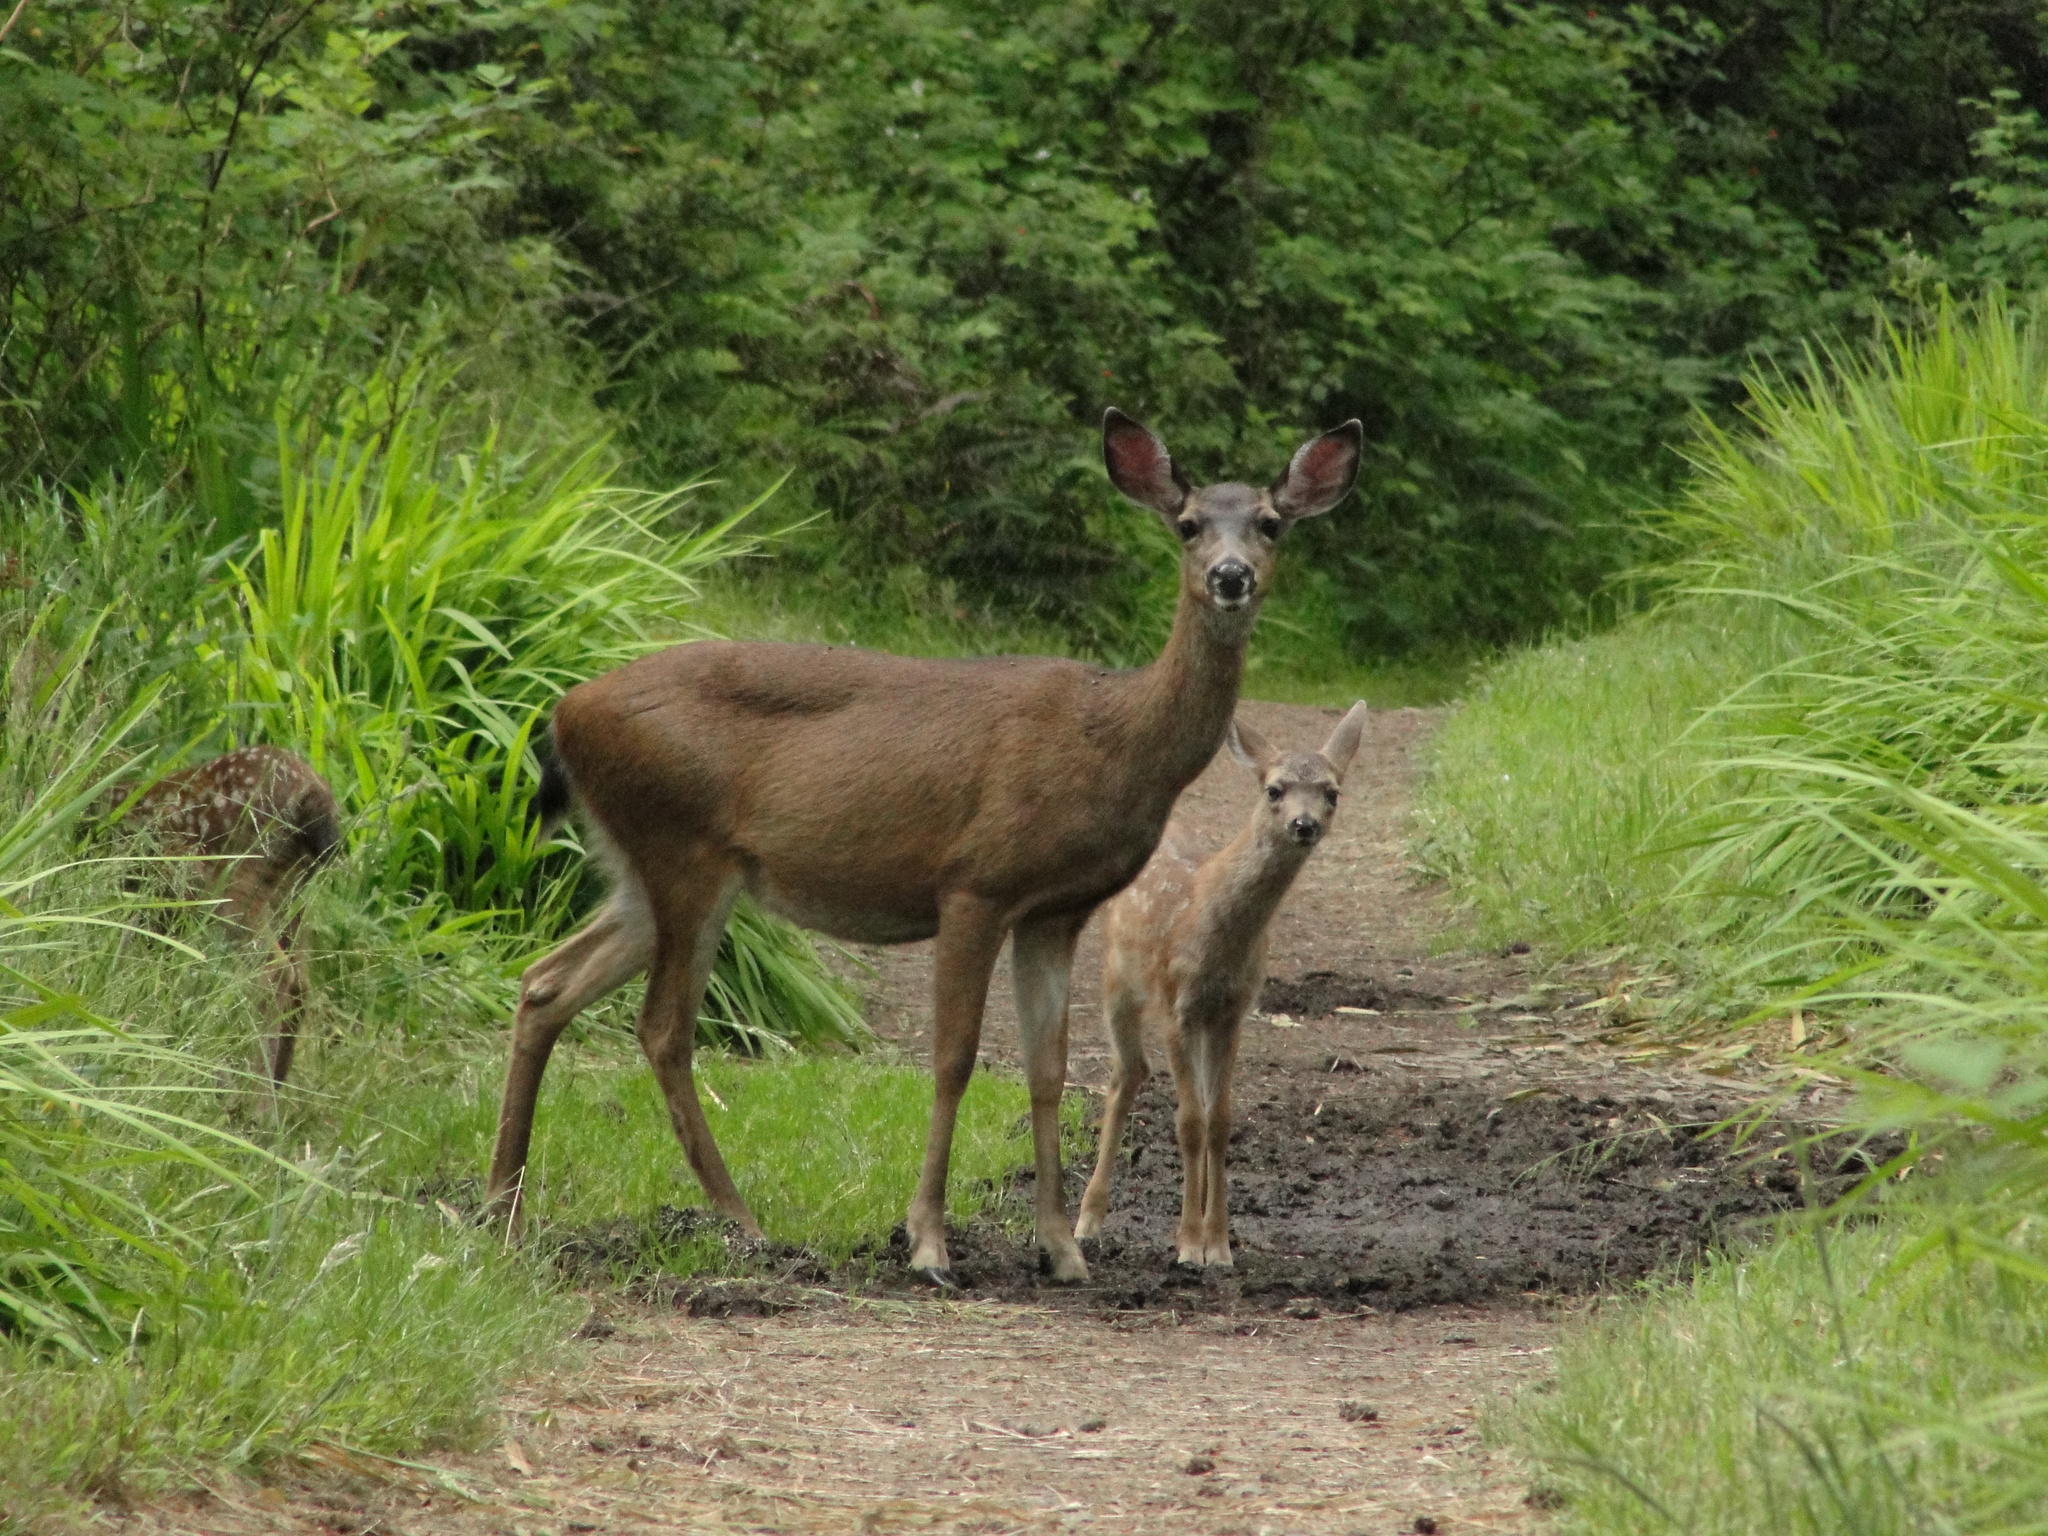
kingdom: Animalia
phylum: Chordata
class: Mammalia
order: Artiodactyla
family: Cervidae
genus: Odocoileus
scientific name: Odocoileus hemionus
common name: Mule deer
